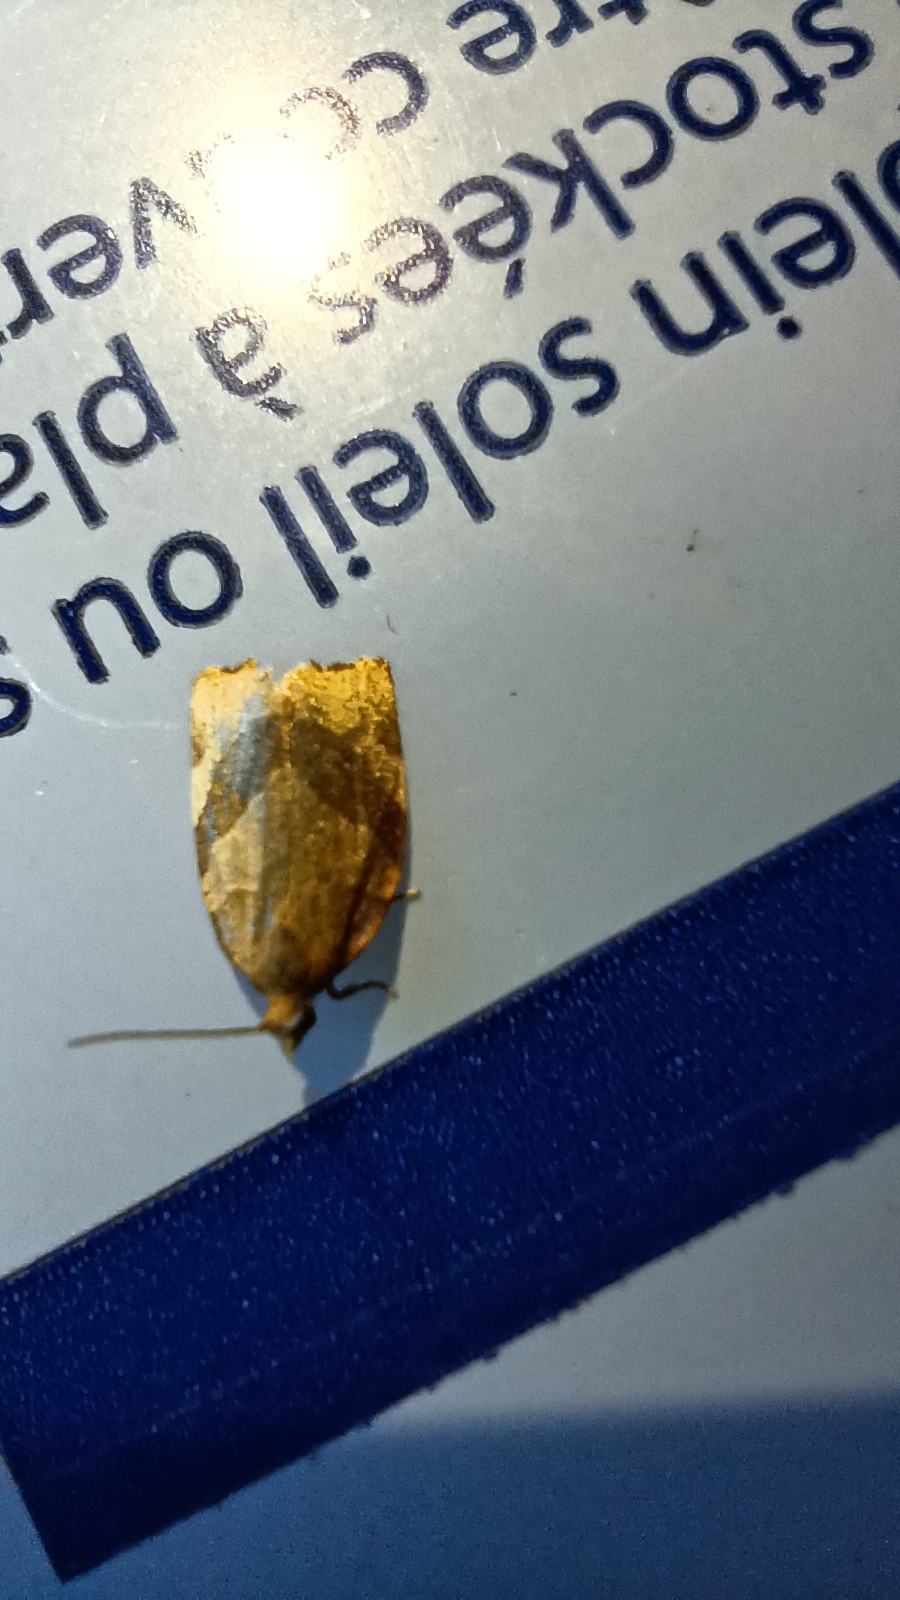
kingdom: Animalia
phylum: Arthropoda
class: Insecta
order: Lepidoptera
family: Tortricidae
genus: Pandemis
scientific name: Pandemis cerasana
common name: Barred fruit-tree tortrix
